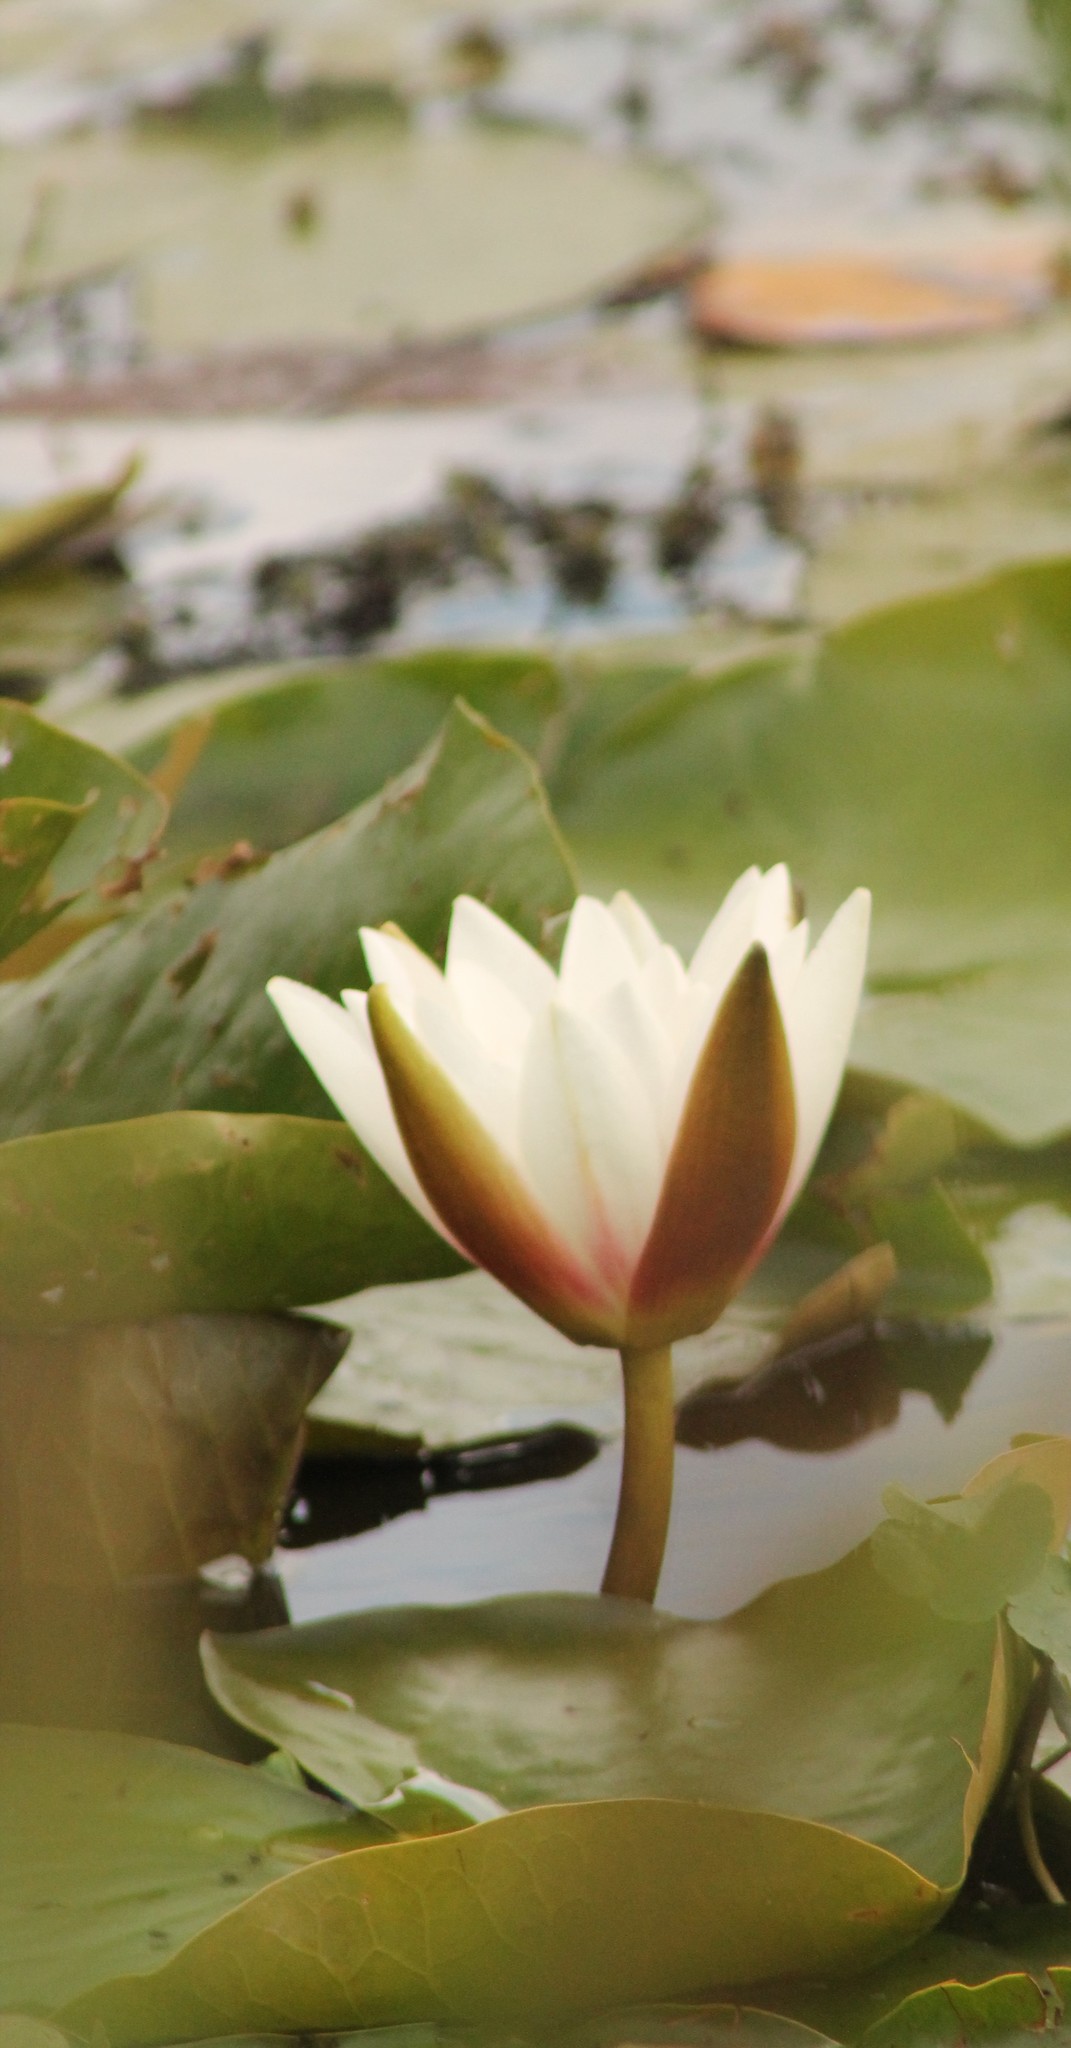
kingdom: Plantae
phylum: Tracheophyta
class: Magnoliopsida
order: Nymphaeales
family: Nymphaeaceae
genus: Nymphaea
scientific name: Nymphaea alba
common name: White water-lily
